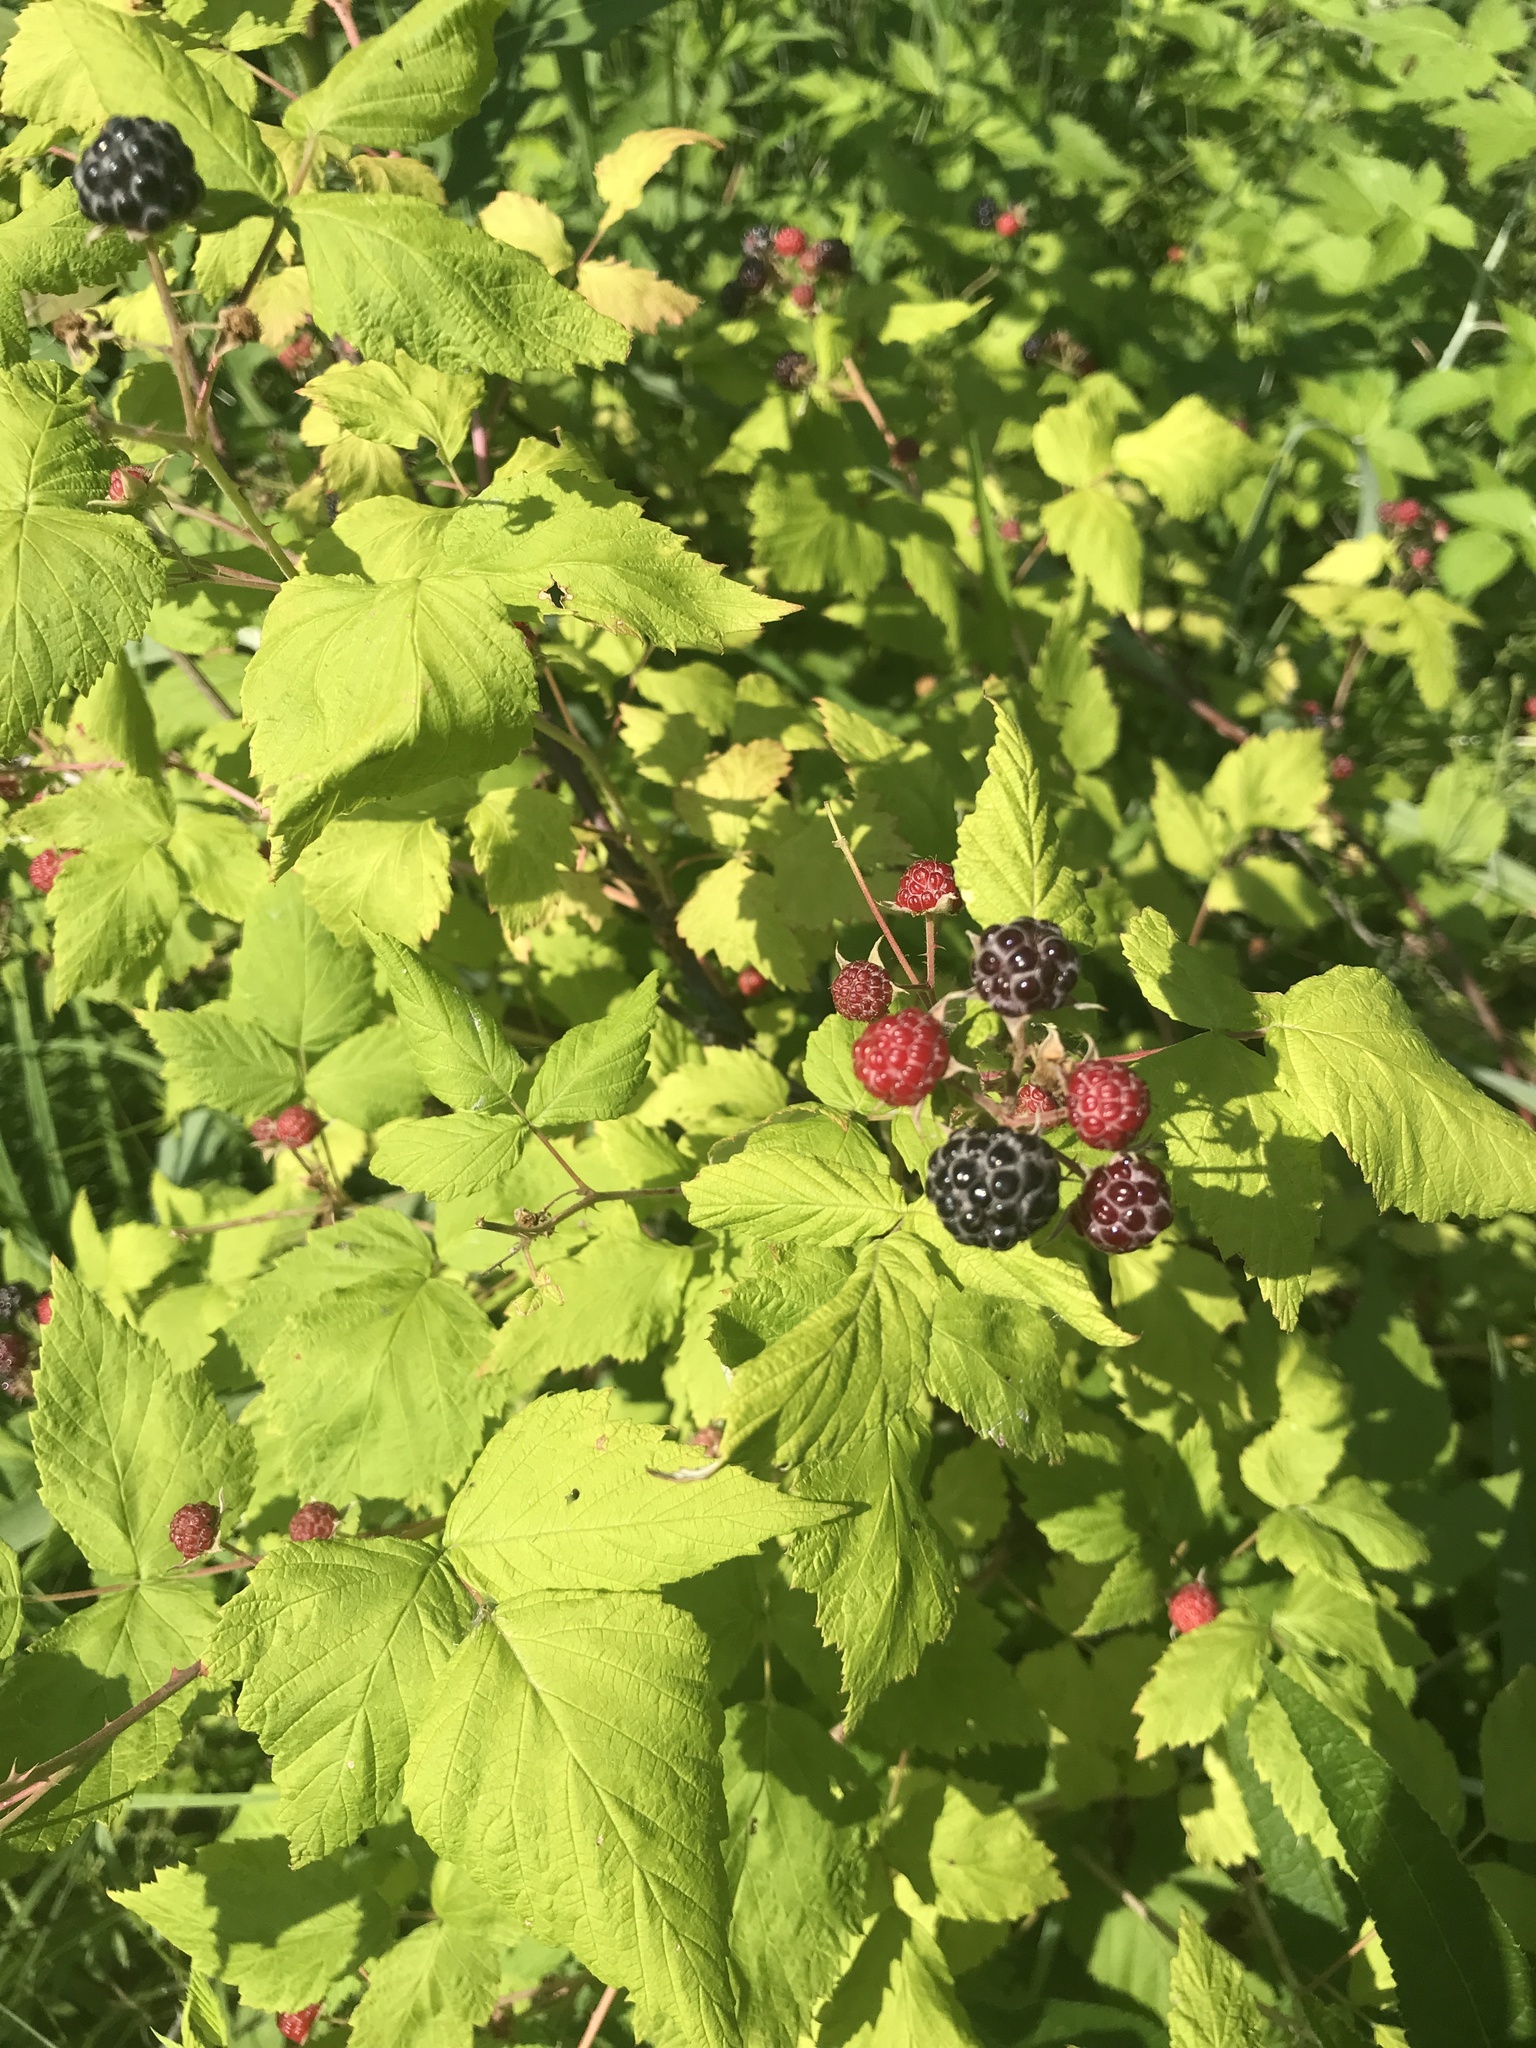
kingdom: Plantae
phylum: Tracheophyta
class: Magnoliopsida
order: Rosales
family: Rosaceae
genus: Rubus
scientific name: Rubus occidentalis
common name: Black raspberry
